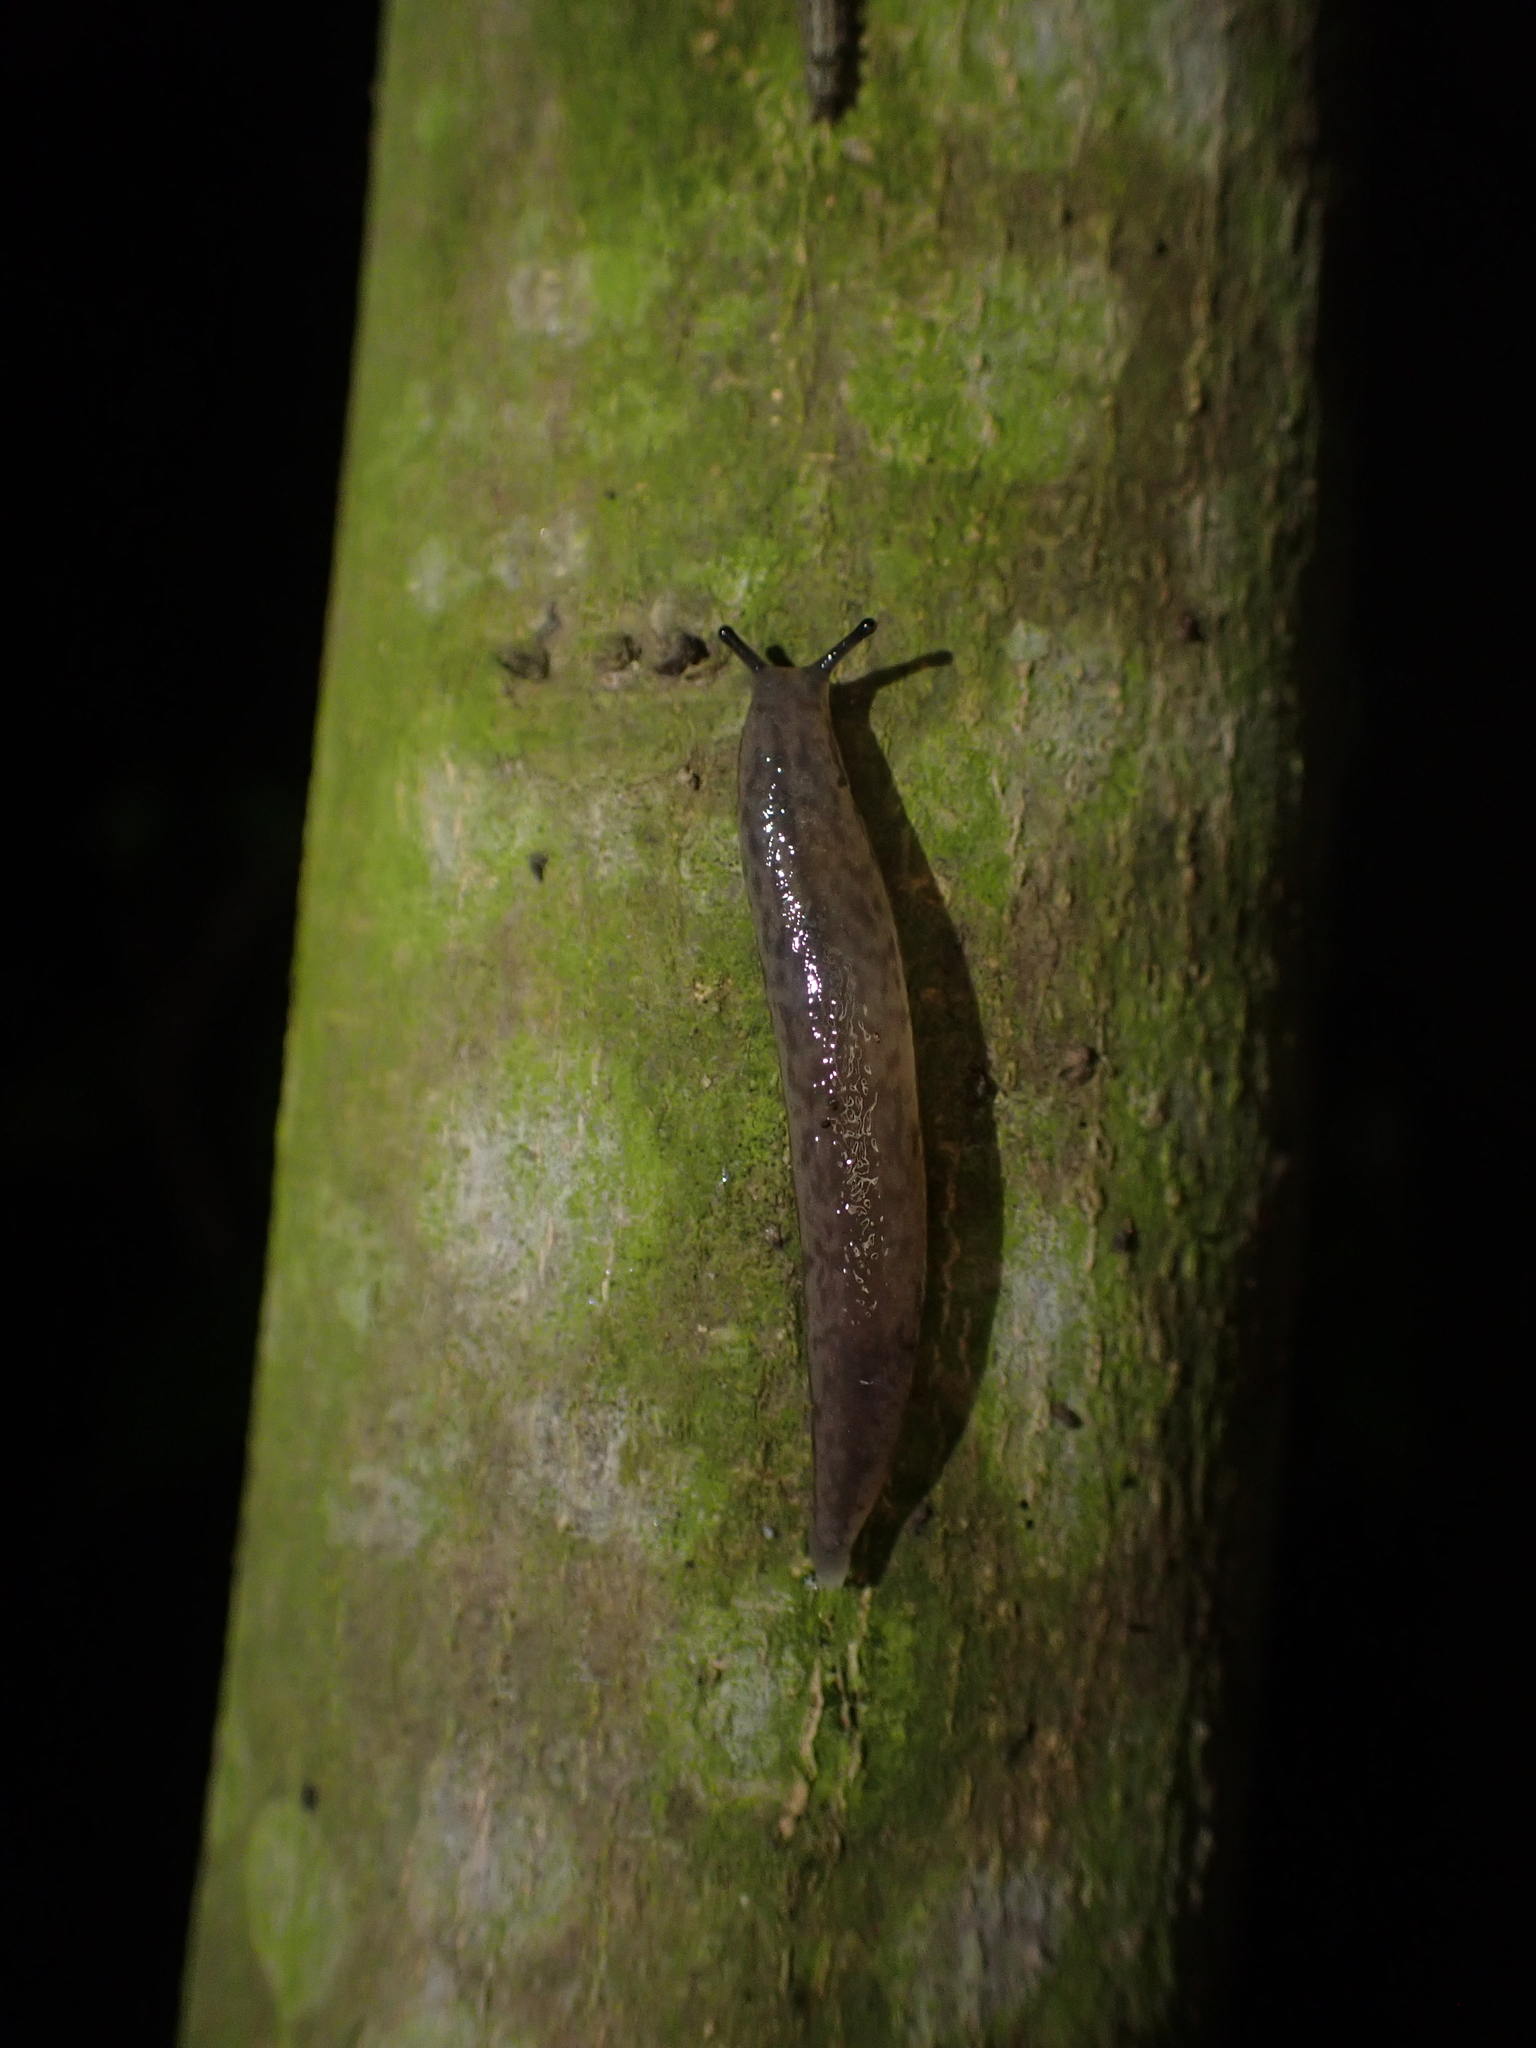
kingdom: Animalia
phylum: Mollusca
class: Gastropoda
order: Stylommatophora
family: Philomycidae
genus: Meghimatium
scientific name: Meghimatium bilineatum
